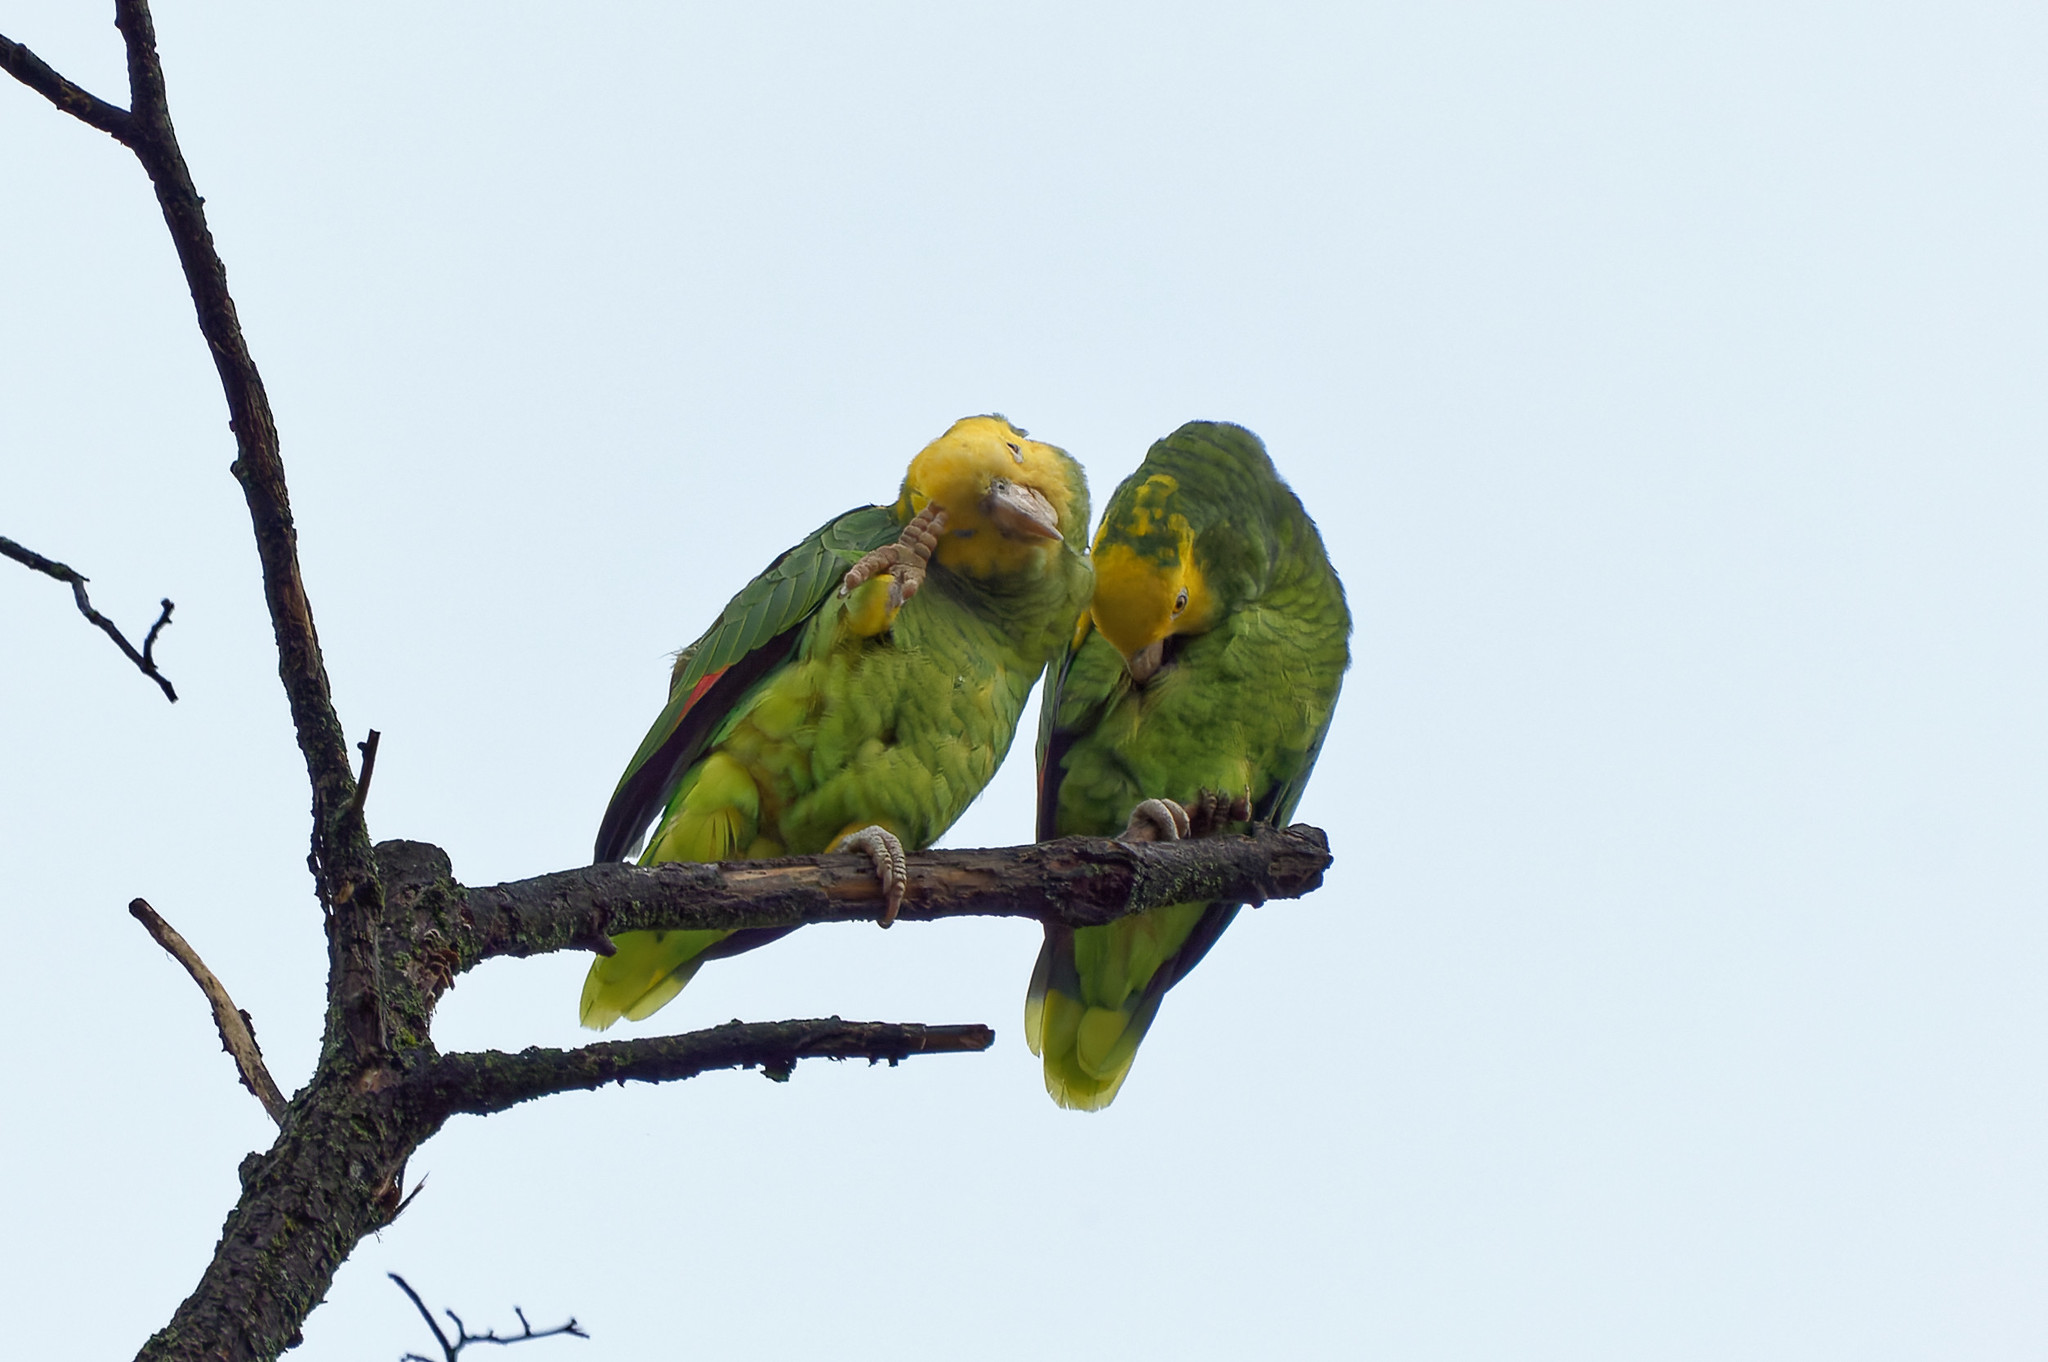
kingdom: Animalia
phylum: Chordata
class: Aves
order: Psittaciformes
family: Psittacidae
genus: Amazona
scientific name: Amazona oratrix
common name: Yellow-headed amazon
